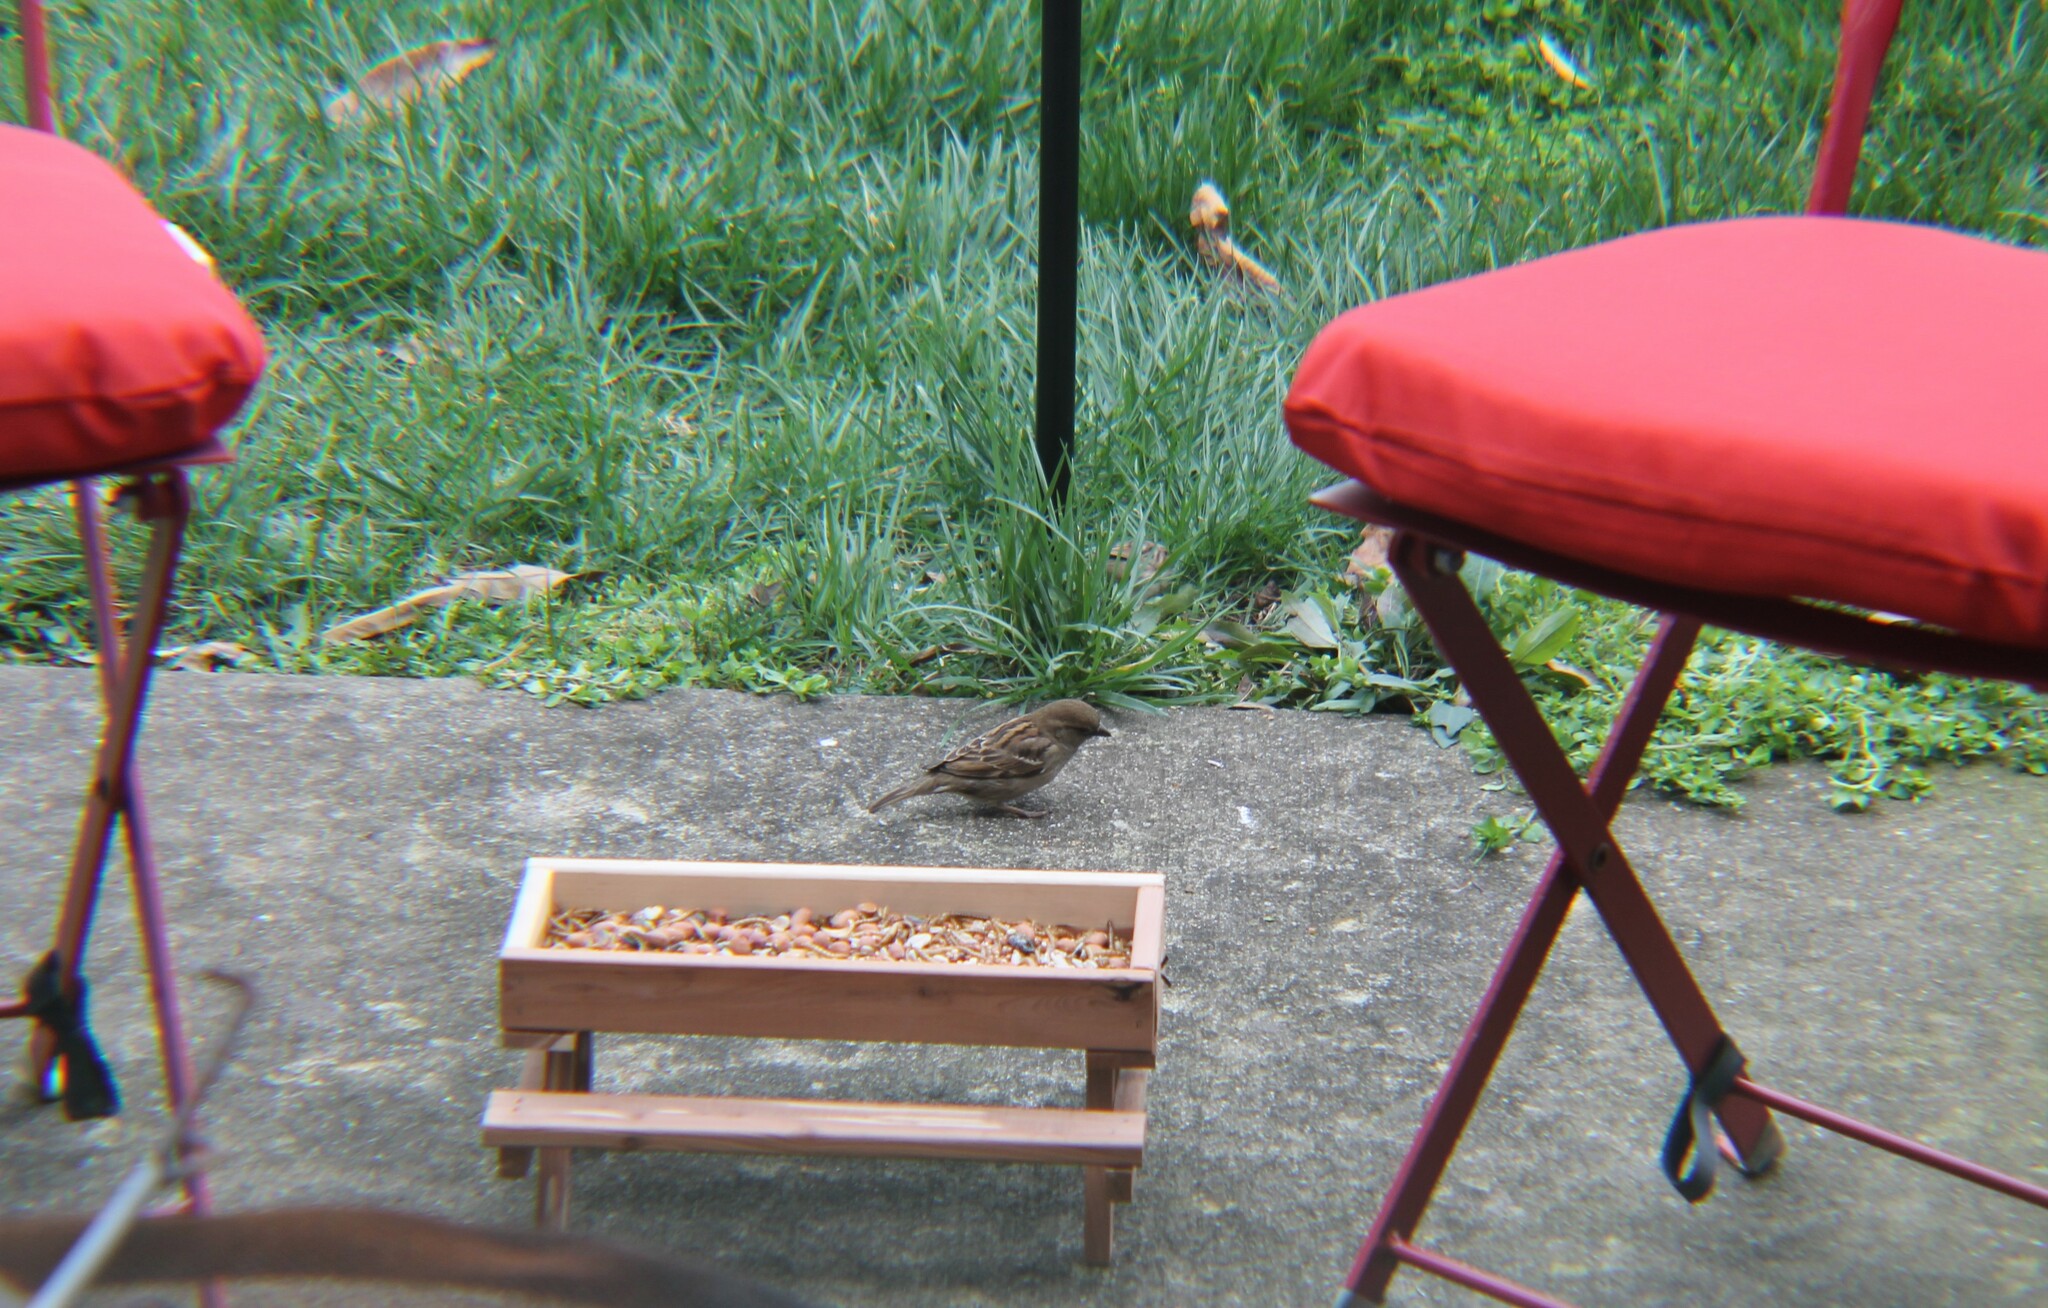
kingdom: Animalia
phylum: Chordata
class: Aves
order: Passeriformes
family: Passeridae
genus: Passer
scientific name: Passer domesticus
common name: House sparrow
